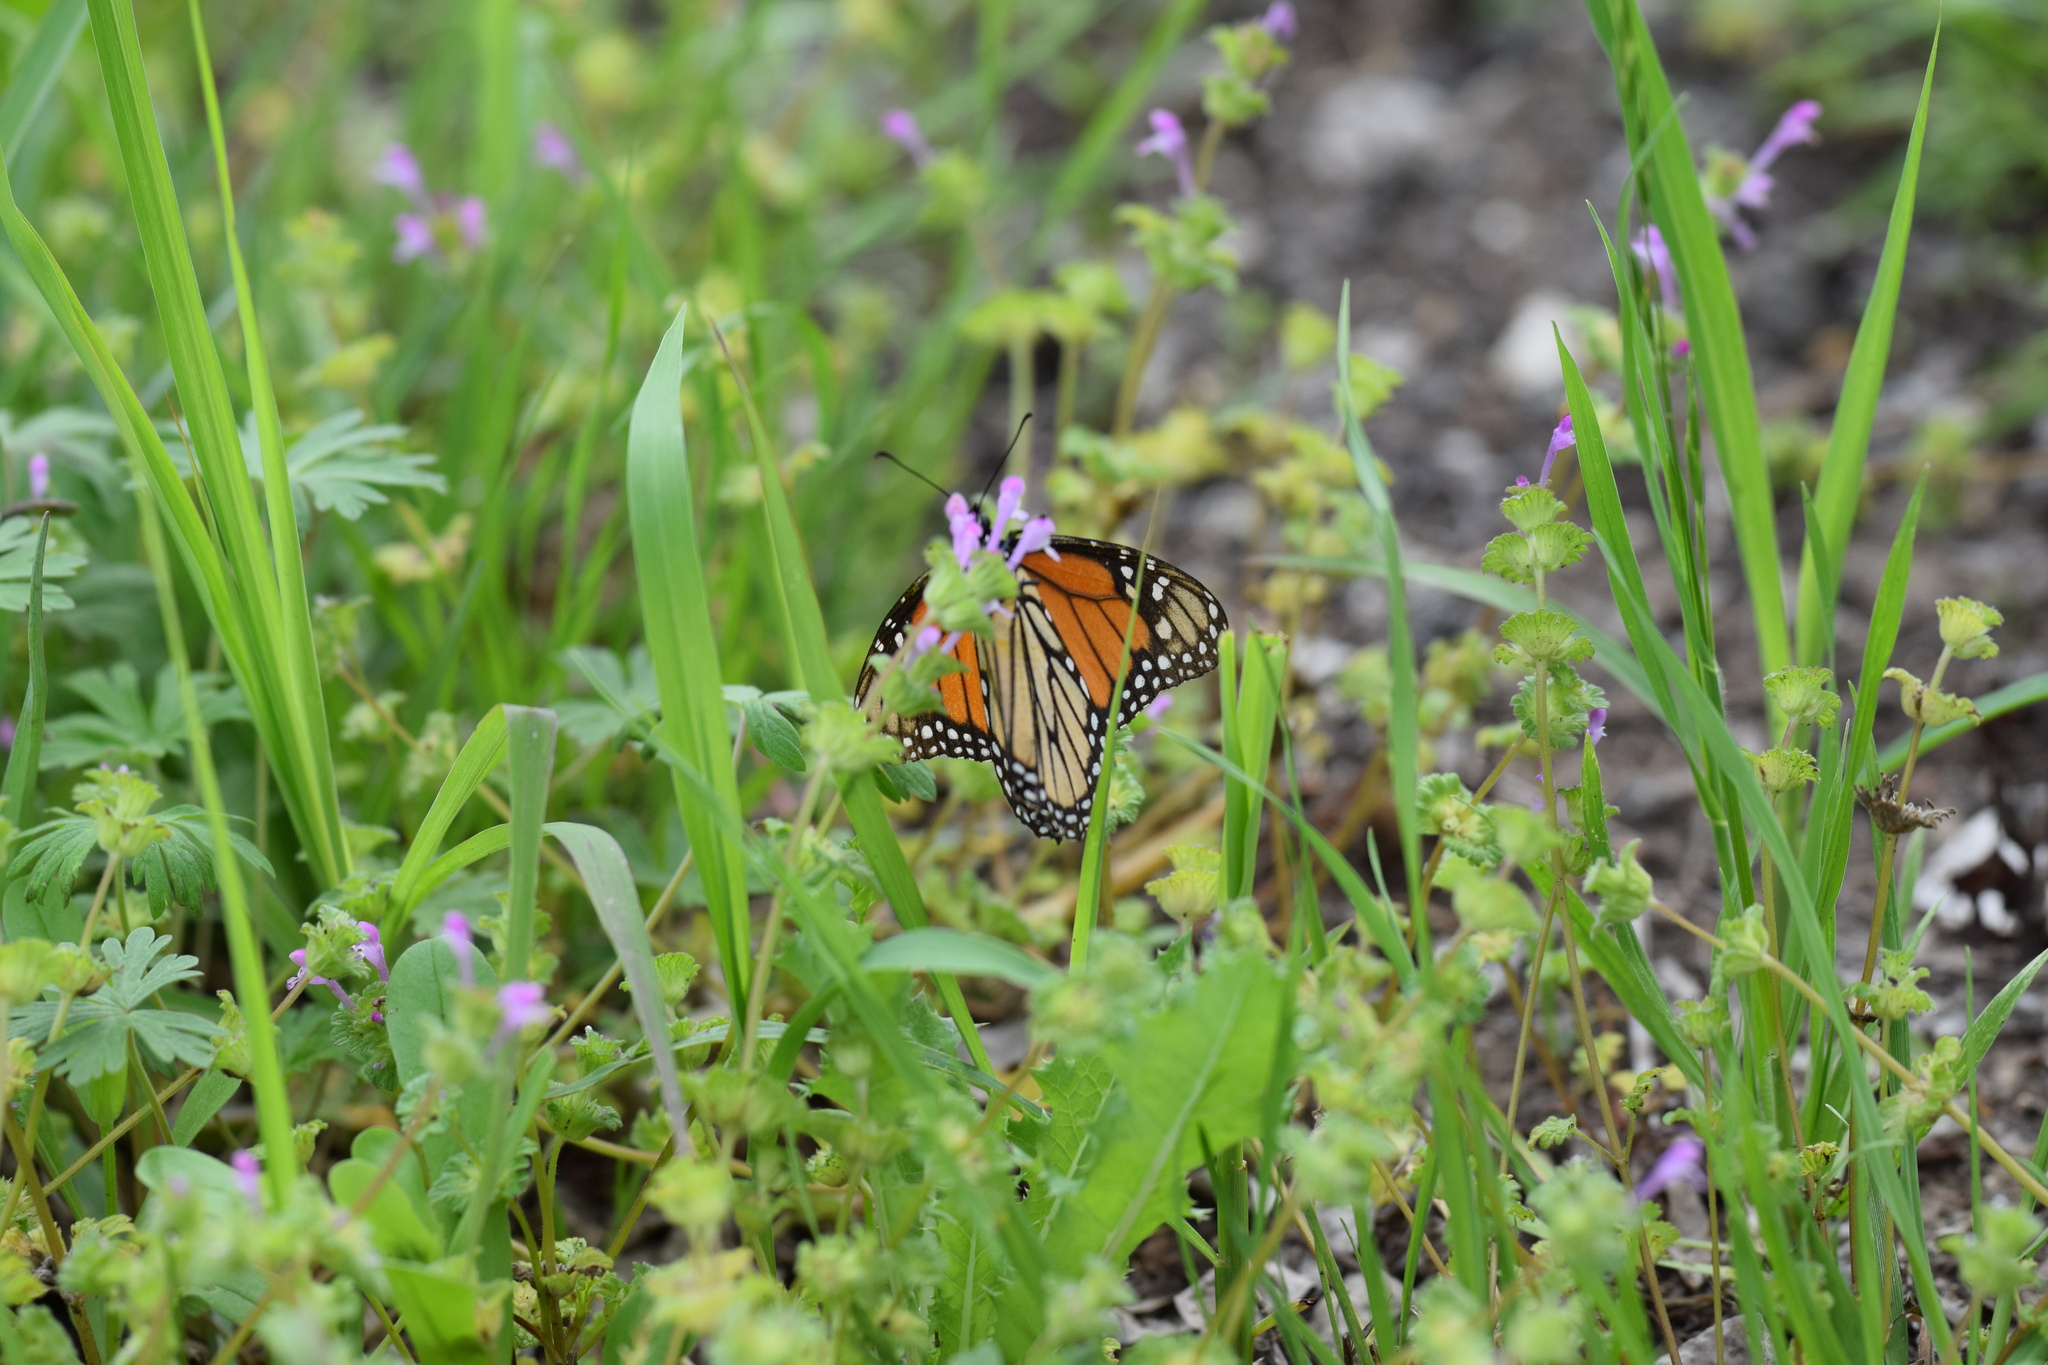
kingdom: Animalia
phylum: Arthropoda
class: Insecta
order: Lepidoptera
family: Nymphalidae
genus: Danaus
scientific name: Danaus plexippus
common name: Monarch
